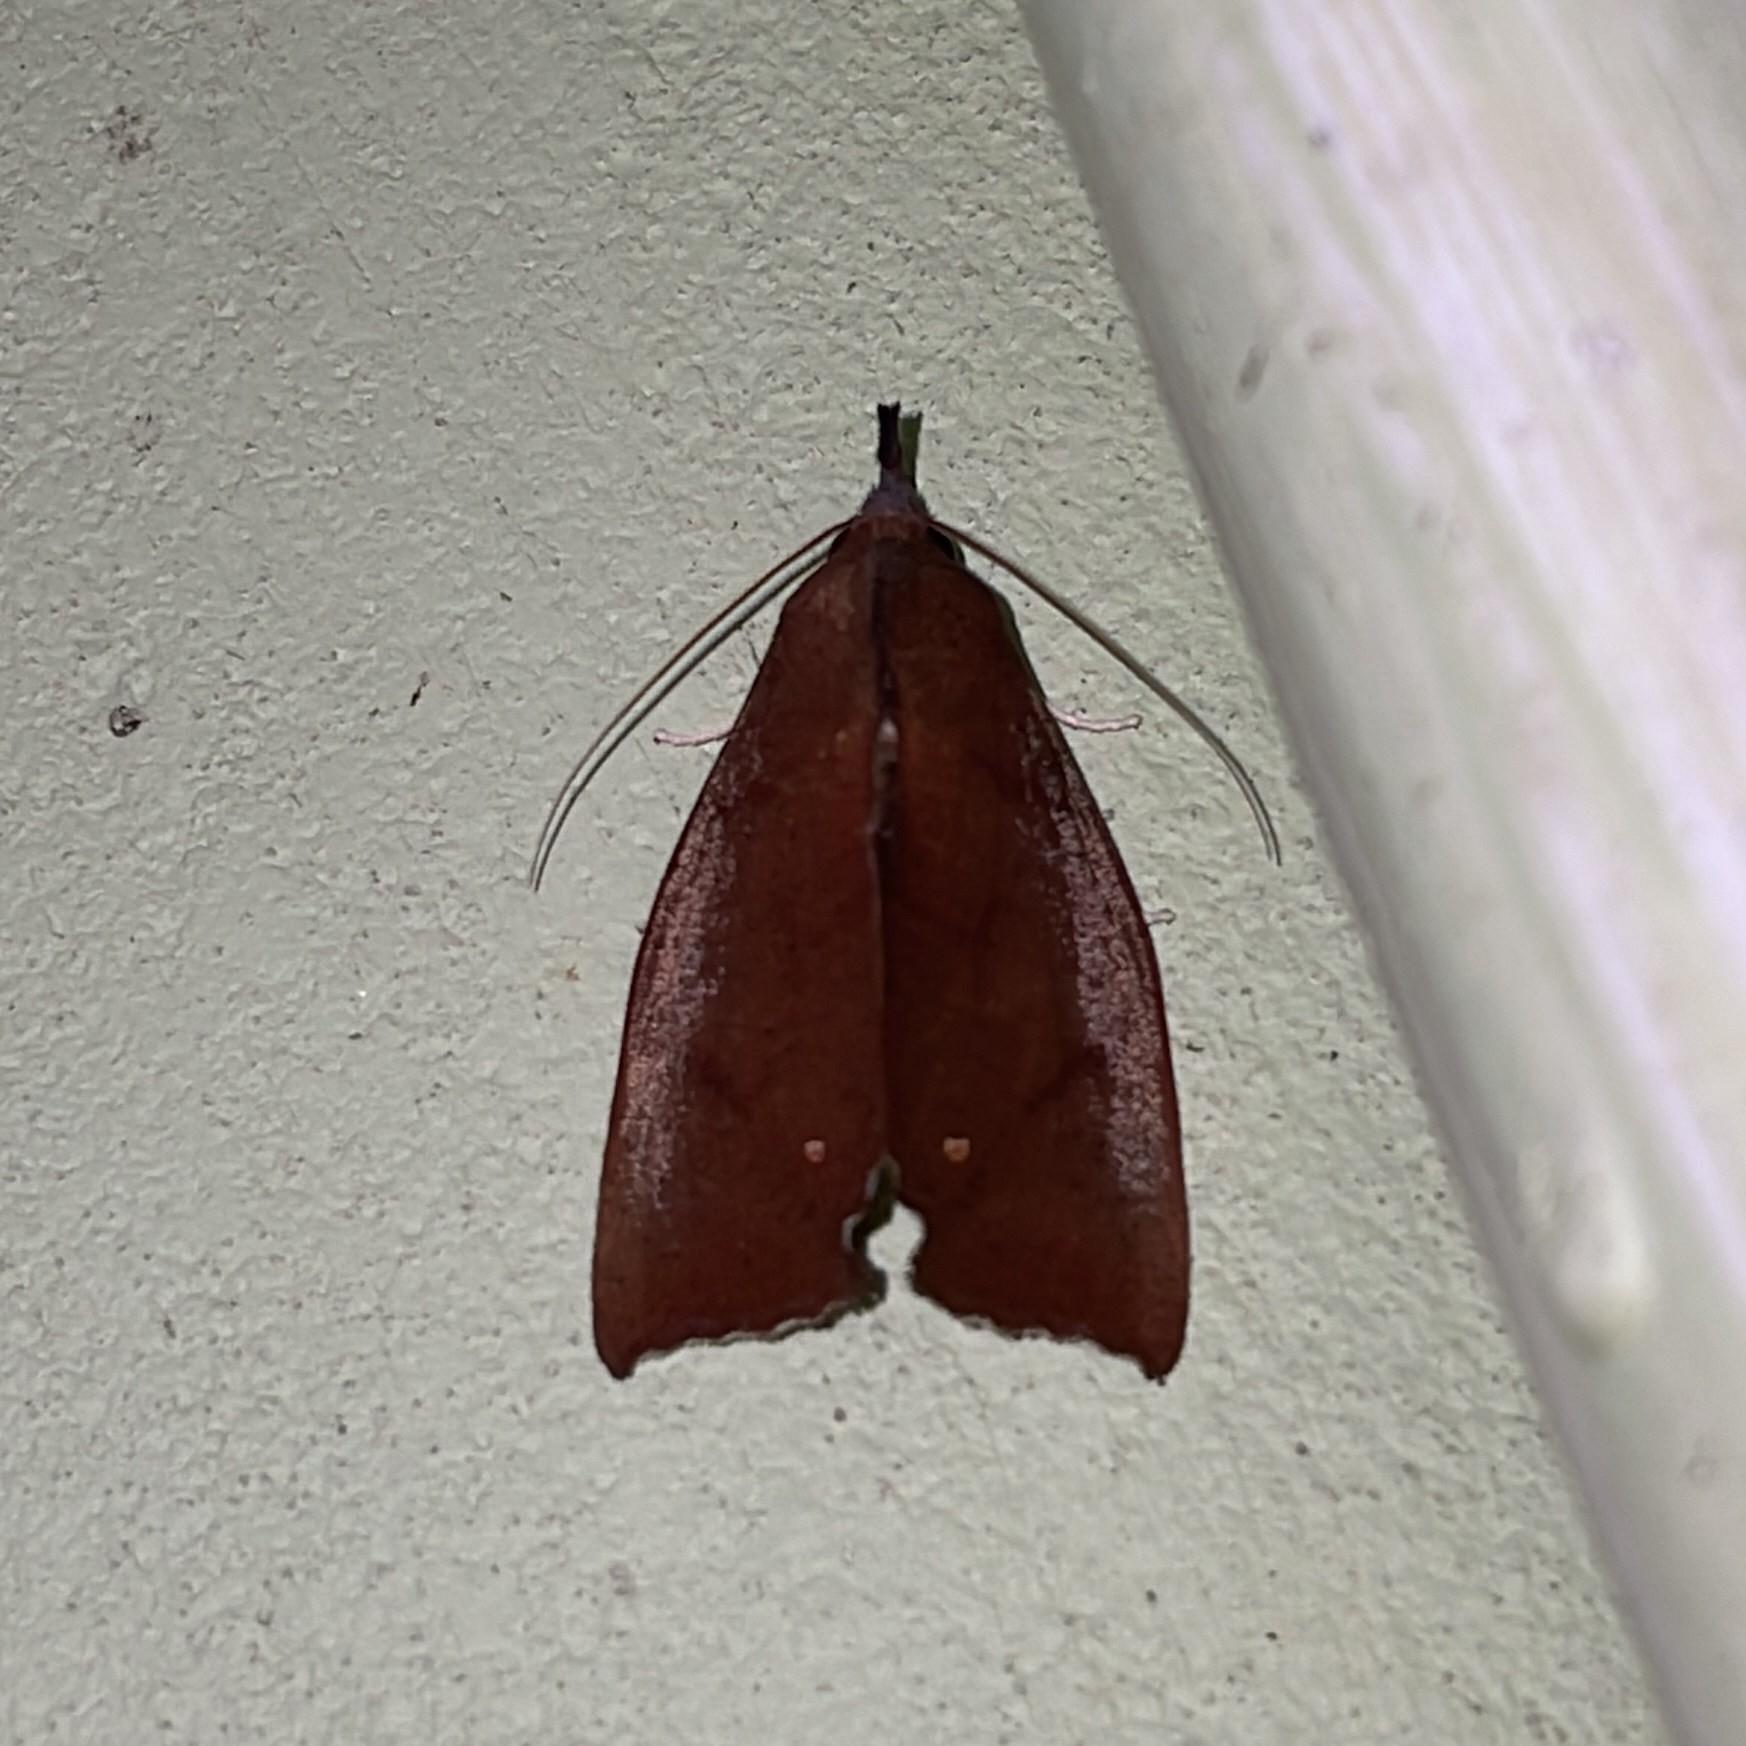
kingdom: Animalia
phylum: Arthropoda
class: Insecta
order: Lepidoptera
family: Erebidae
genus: Goniapteryx
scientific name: Goniapteryx servia
